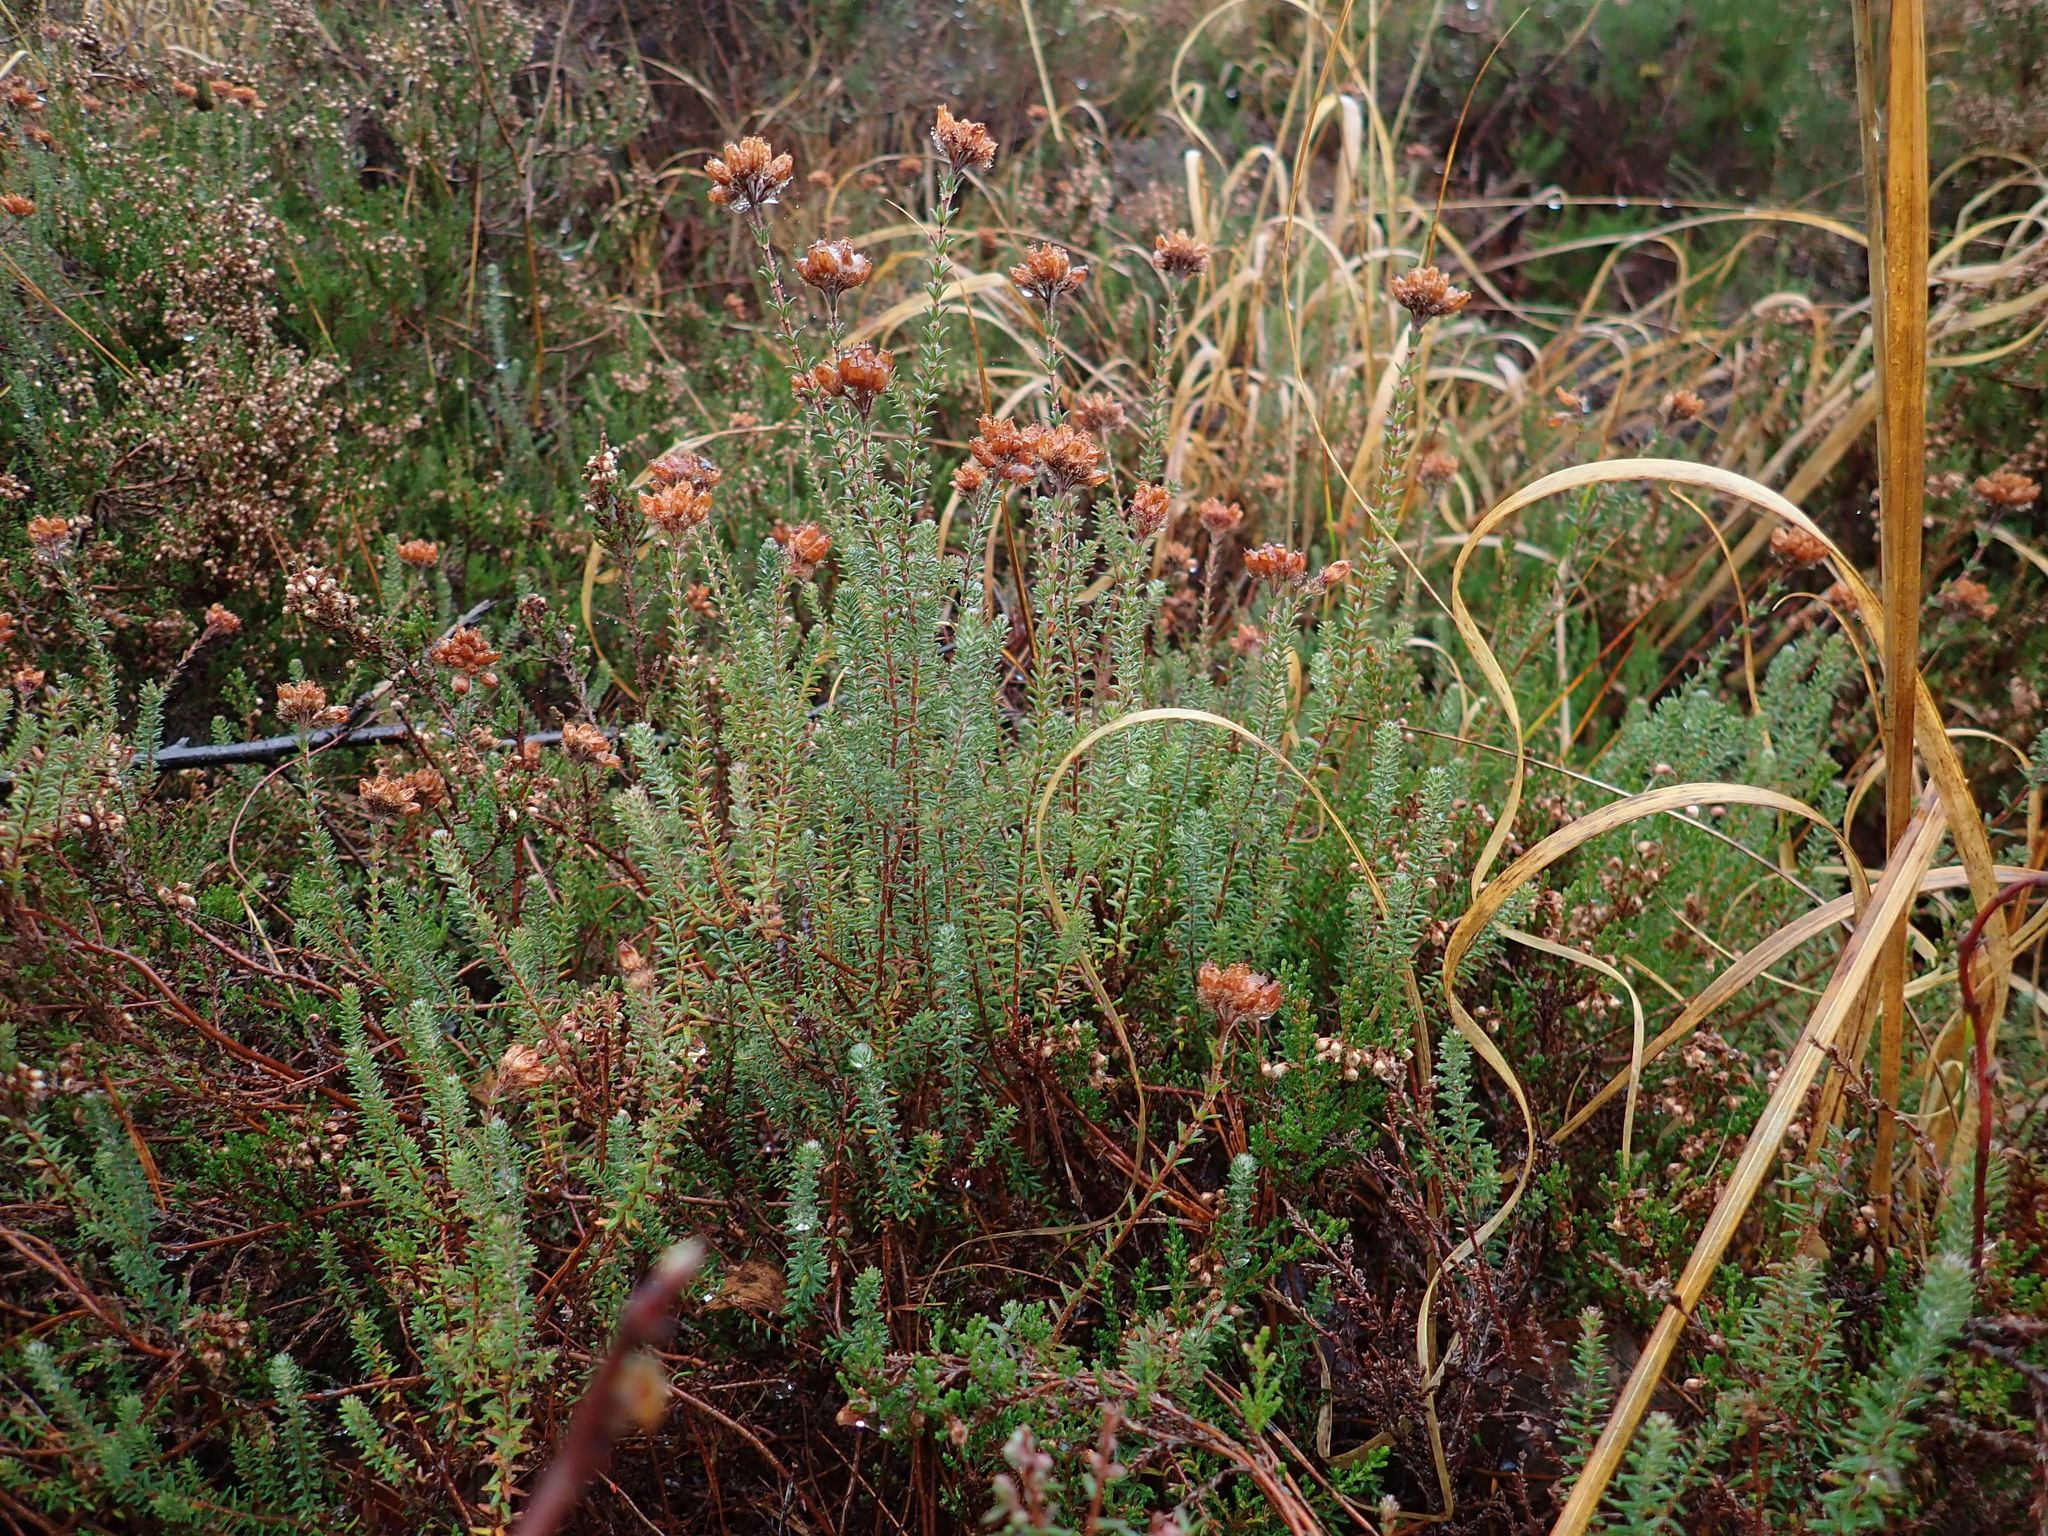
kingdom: Plantae
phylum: Tracheophyta
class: Magnoliopsida
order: Ericales
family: Ericaceae
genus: Erica
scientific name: Erica tetralix
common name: Cross-leaved heath
